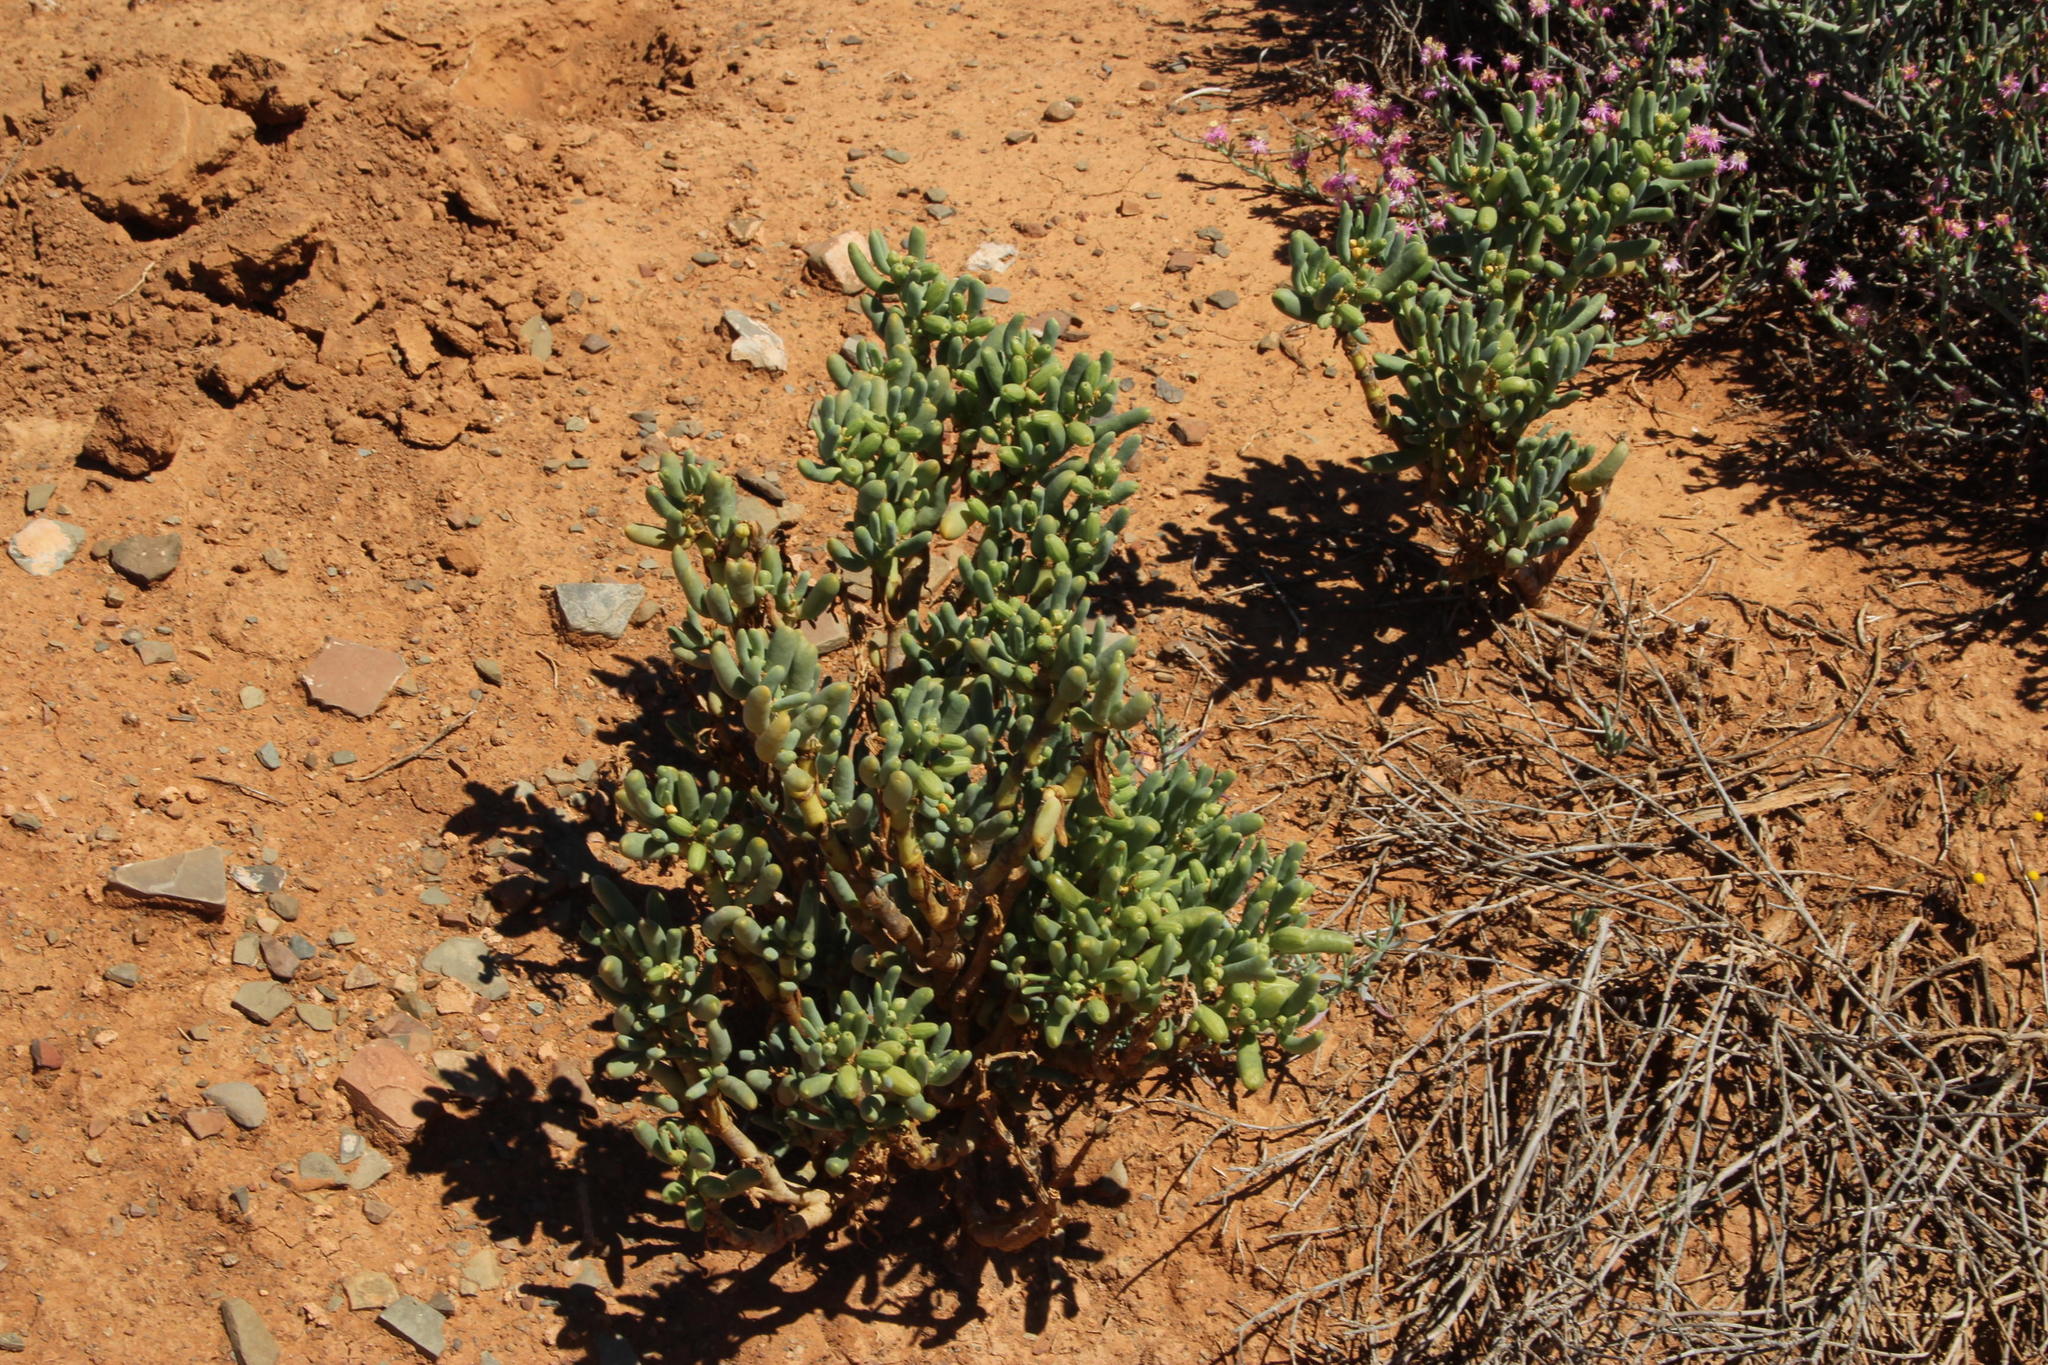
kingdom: Plantae
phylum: Tracheophyta
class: Magnoliopsida
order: Zygophyllales
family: Zygophyllaceae
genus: Augea
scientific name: Augea capensis
